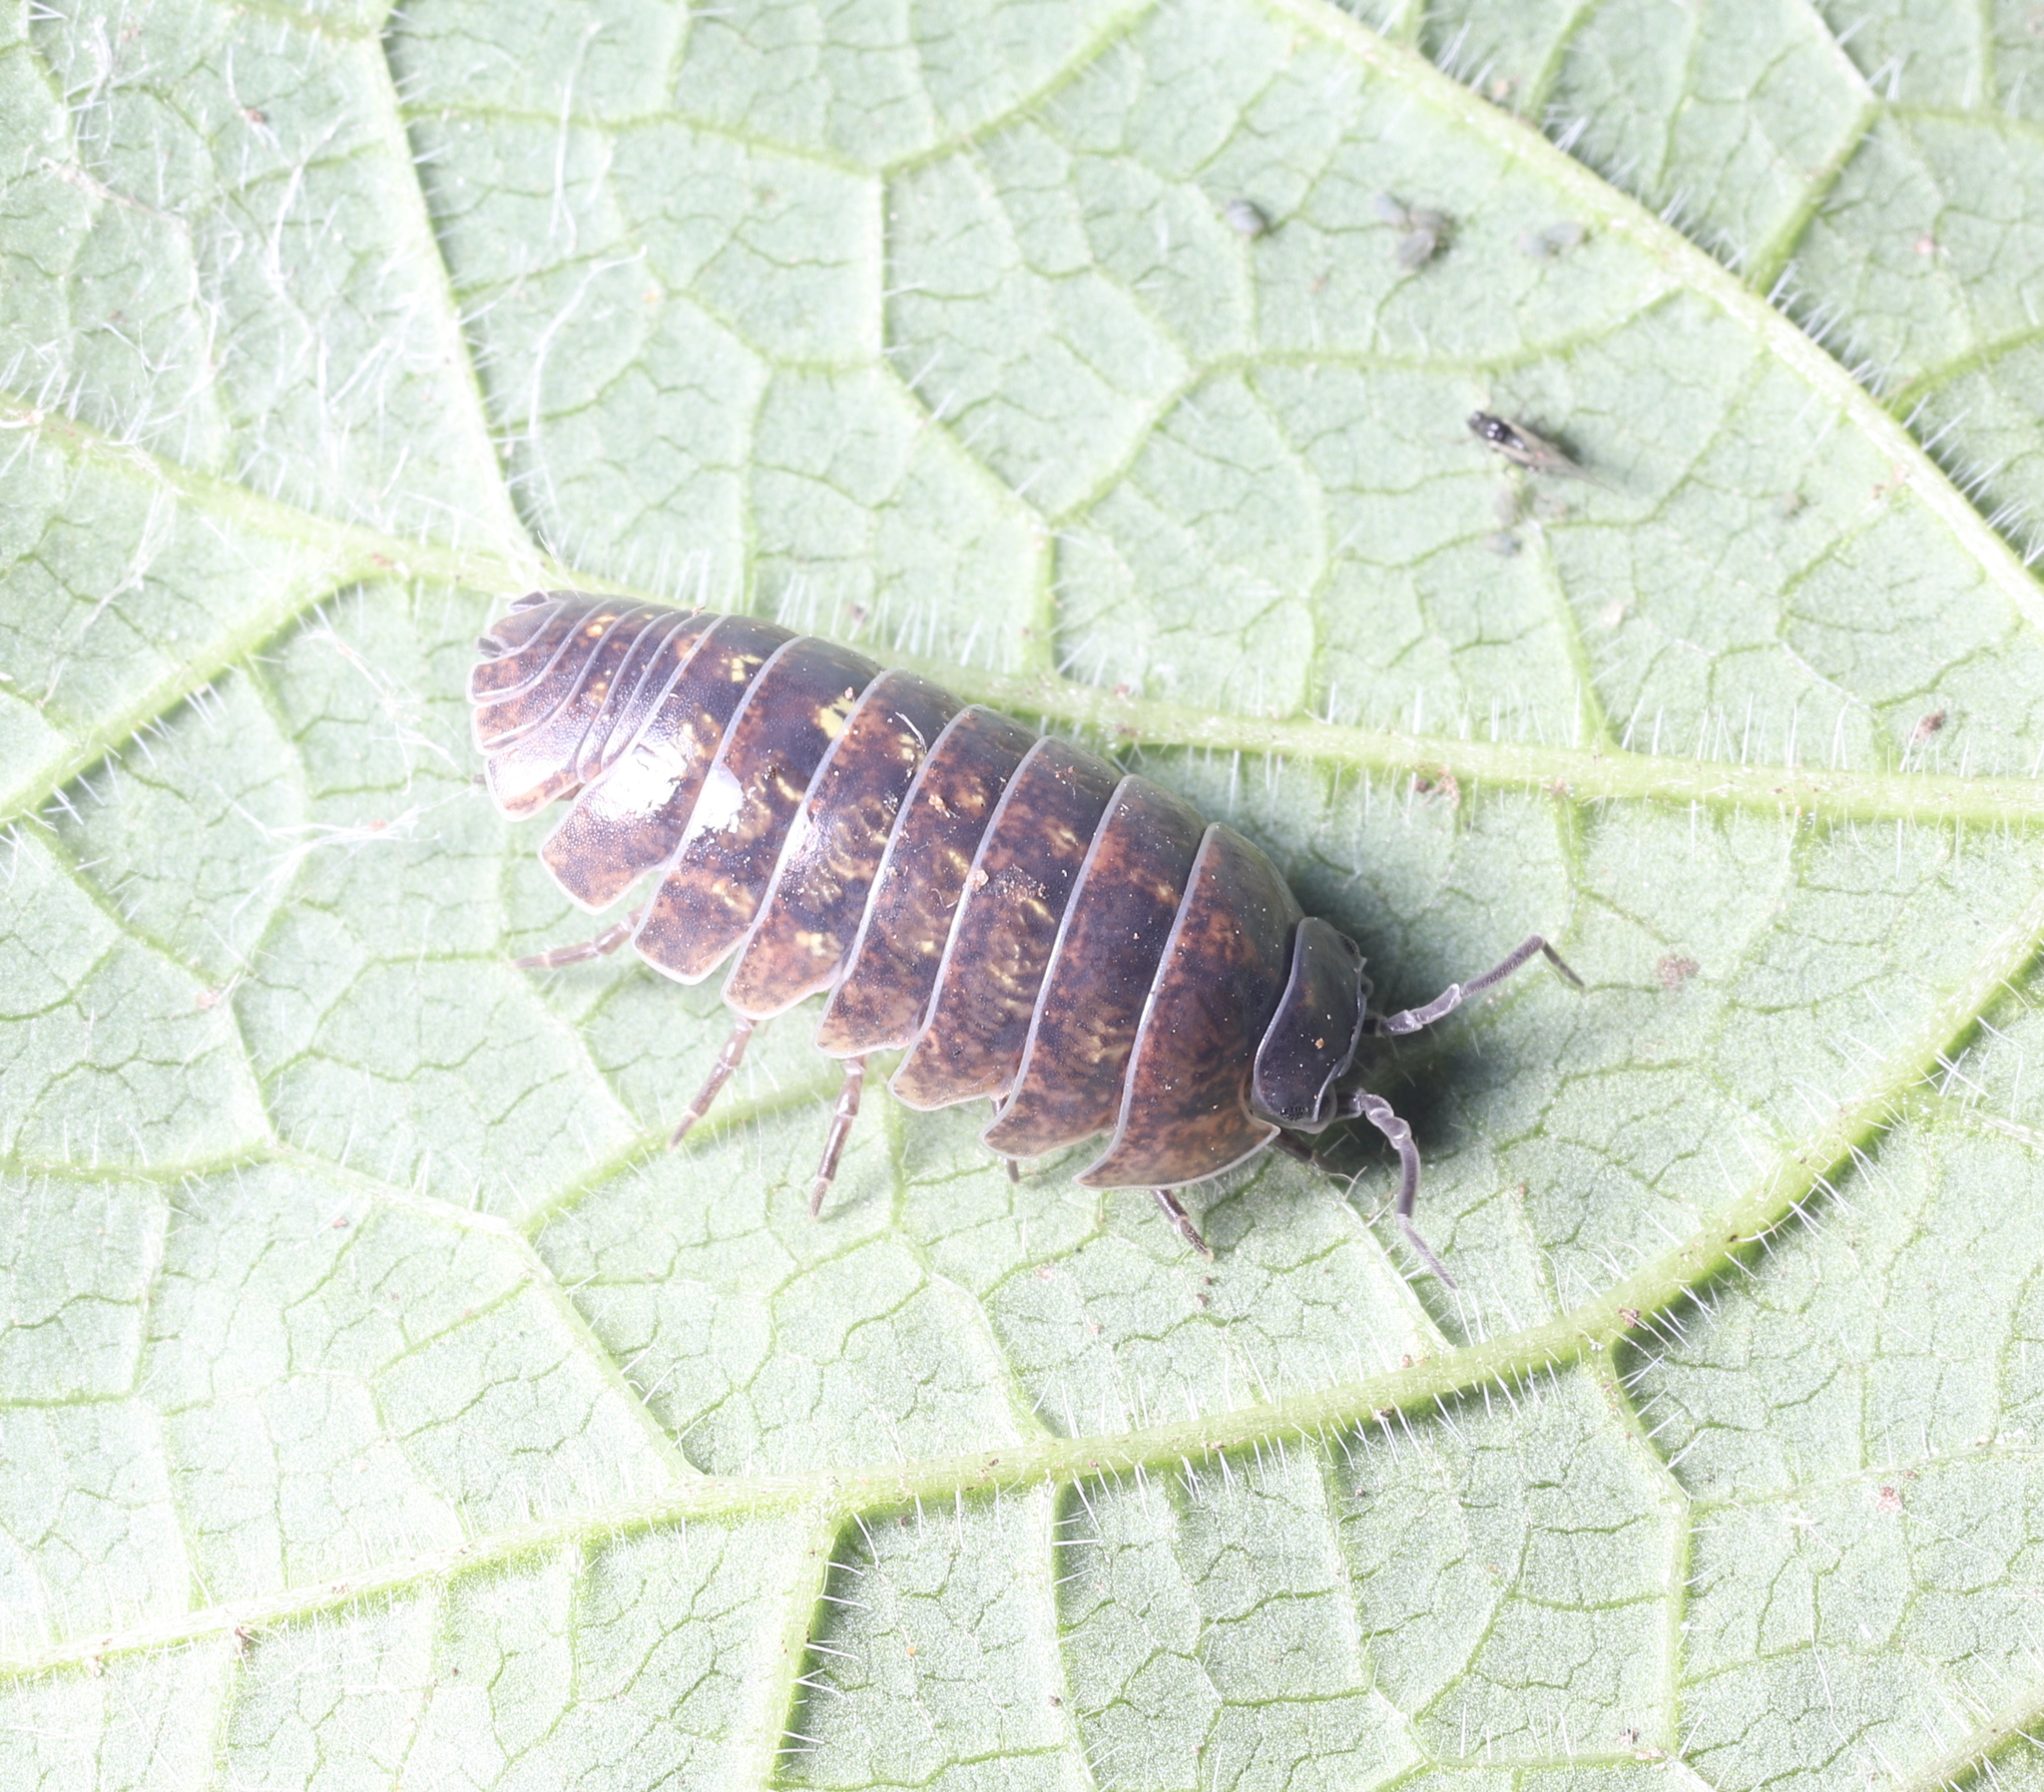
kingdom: Animalia
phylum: Arthropoda
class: Malacostraca
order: Isopoda
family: Armadillidiidae
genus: Armadillidium
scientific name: Armadillidium vulgare
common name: Common pill woodlouse
